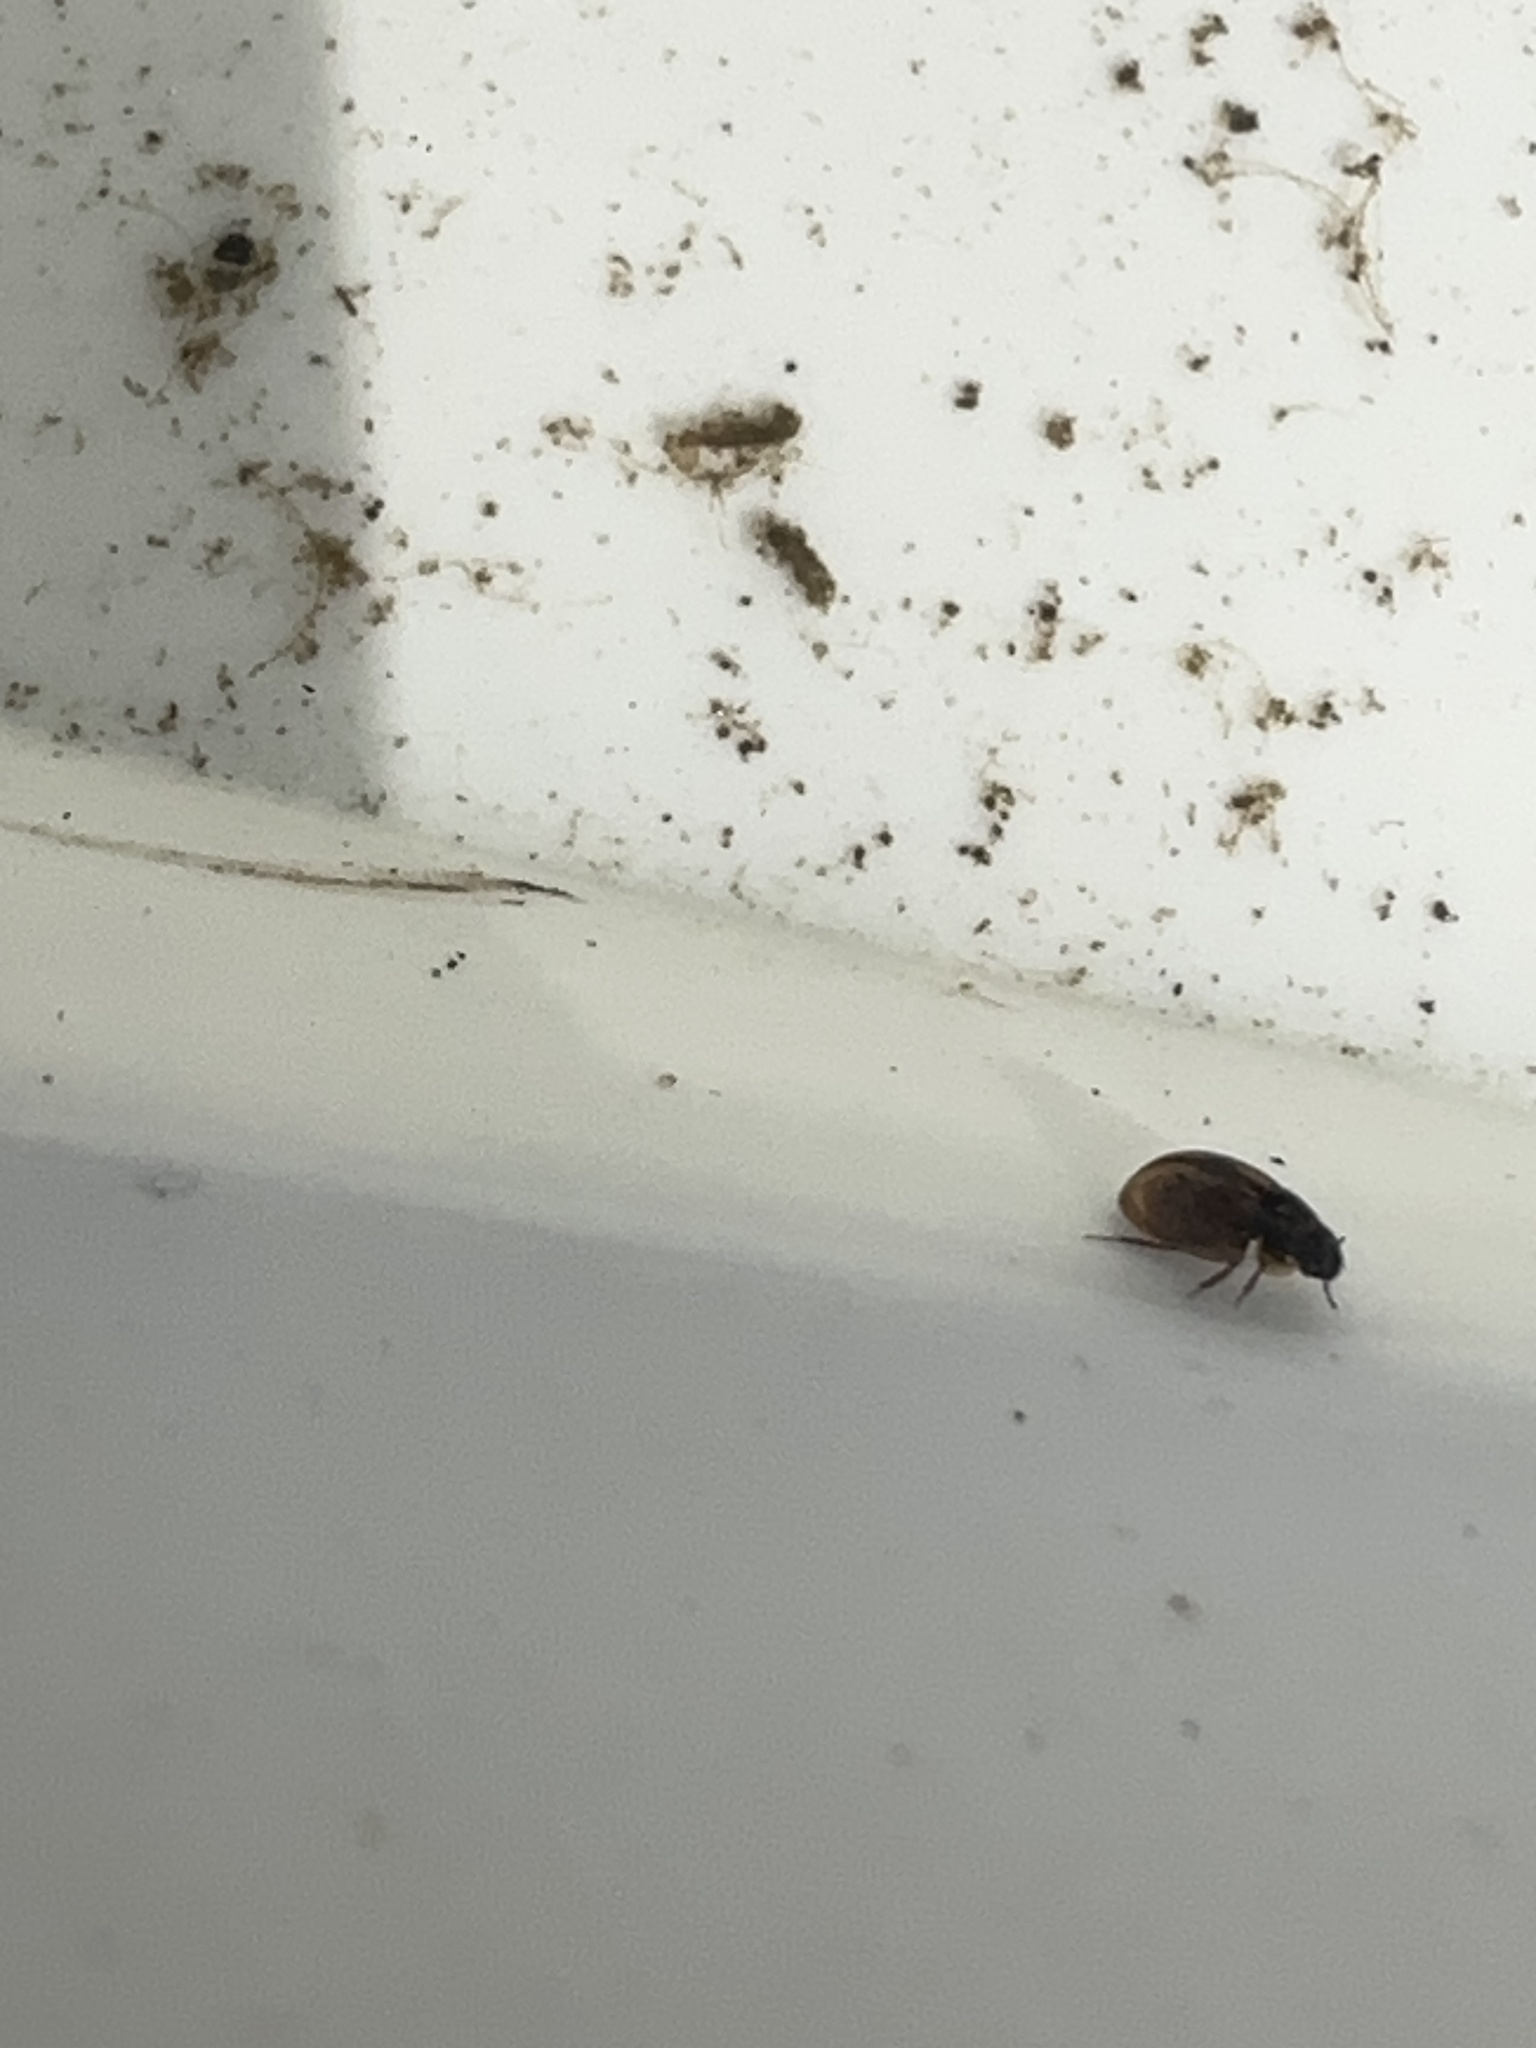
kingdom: Animalia
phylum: Arthropoda
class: Insecta
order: Coleoptera
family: Hydrophilidae
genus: Anacaena
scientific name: Anacaena
